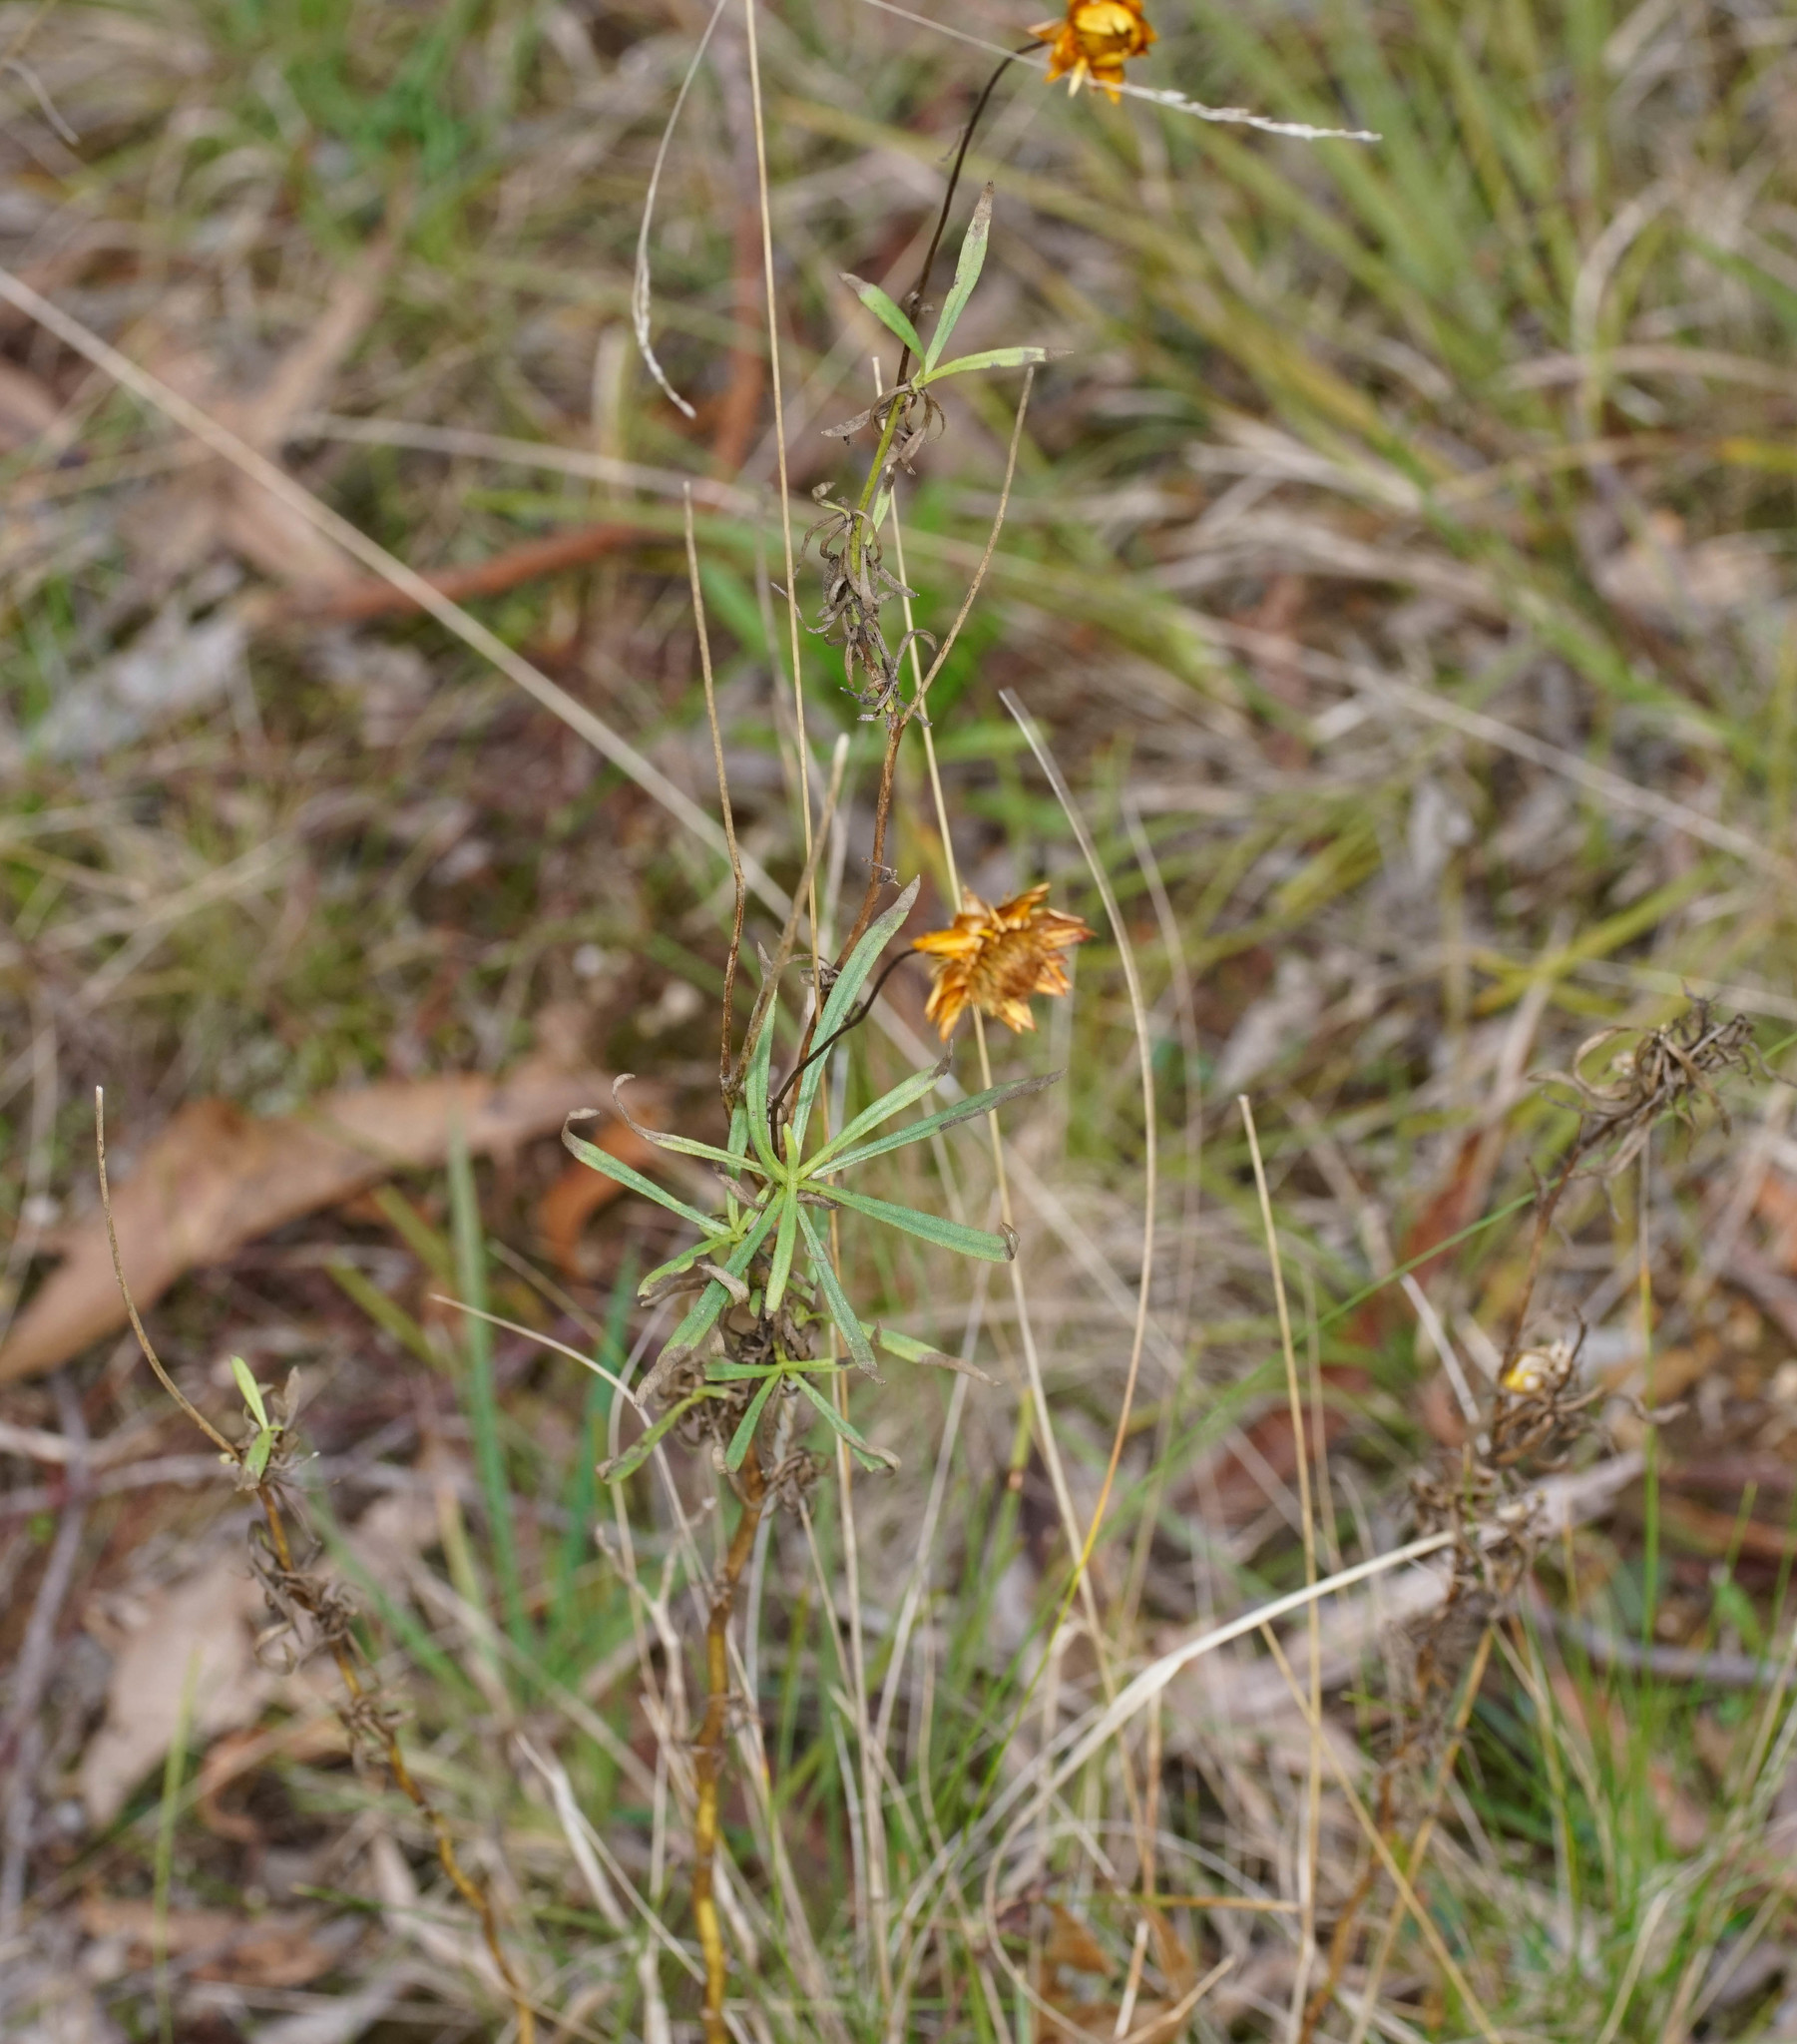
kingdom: Plantae
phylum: Tracheophyta
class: Magnoliopsida
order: Asterales
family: Asteraceae
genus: Xerochrysum
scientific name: Xerochrysum viscosum
